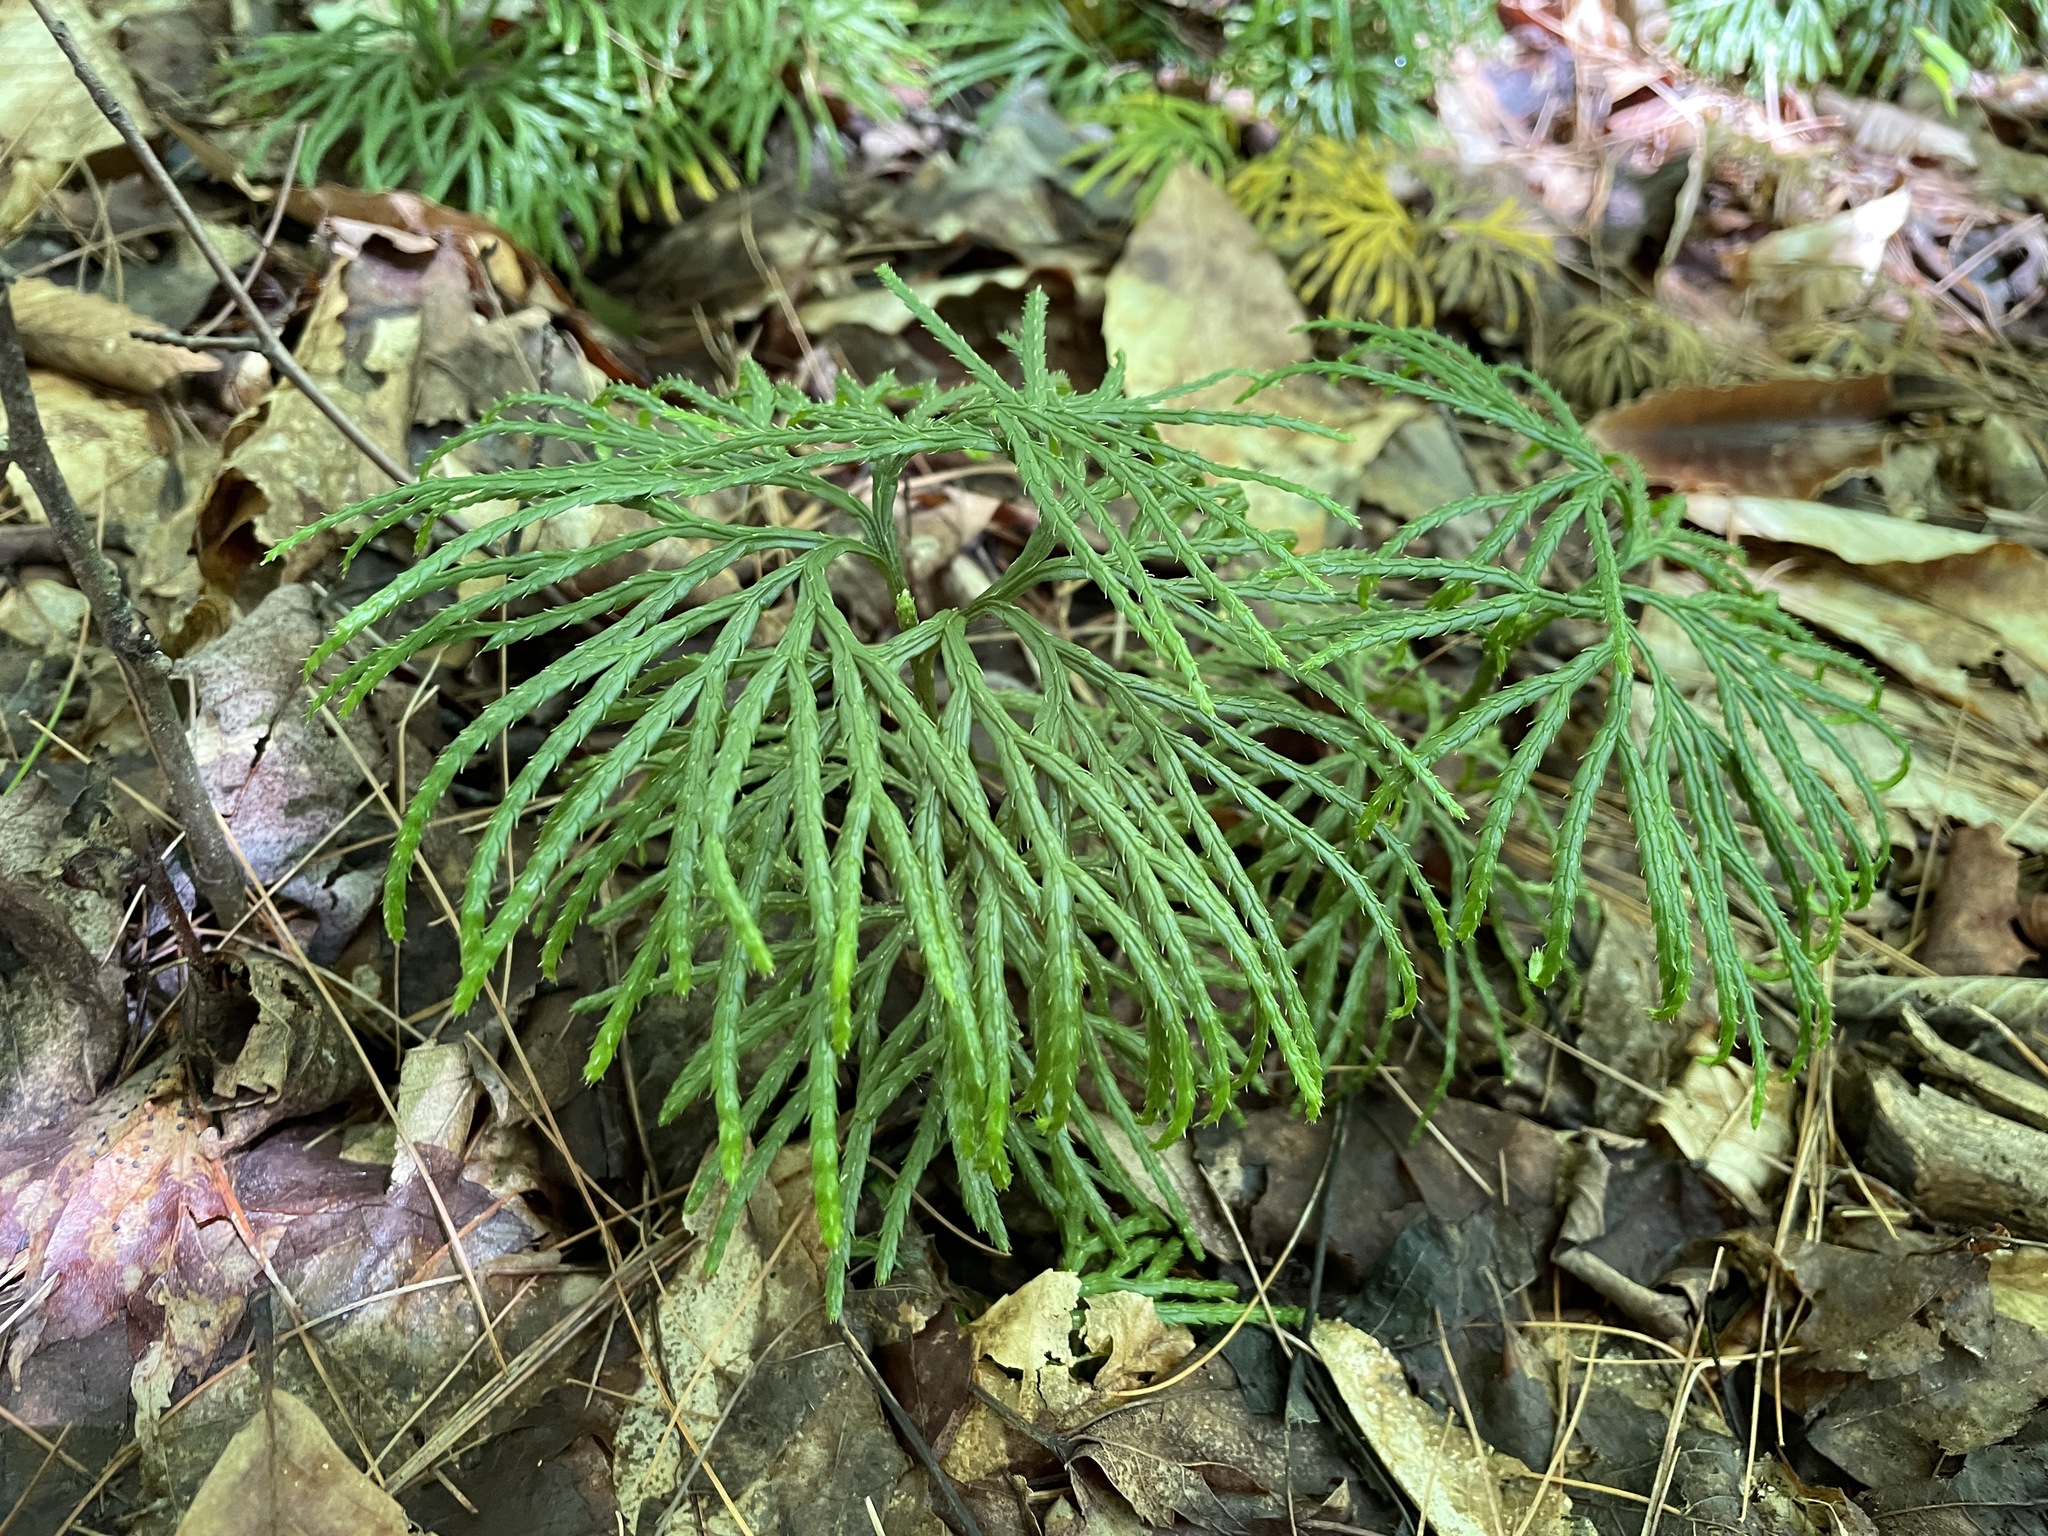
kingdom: Plantae
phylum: Tracheophyta
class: Lycopodiopsida
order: Lycopodiales
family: Lycopodiaceae
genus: Diphasiastrum
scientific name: Diphasiastrum digitatum
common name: Southern running-pine
